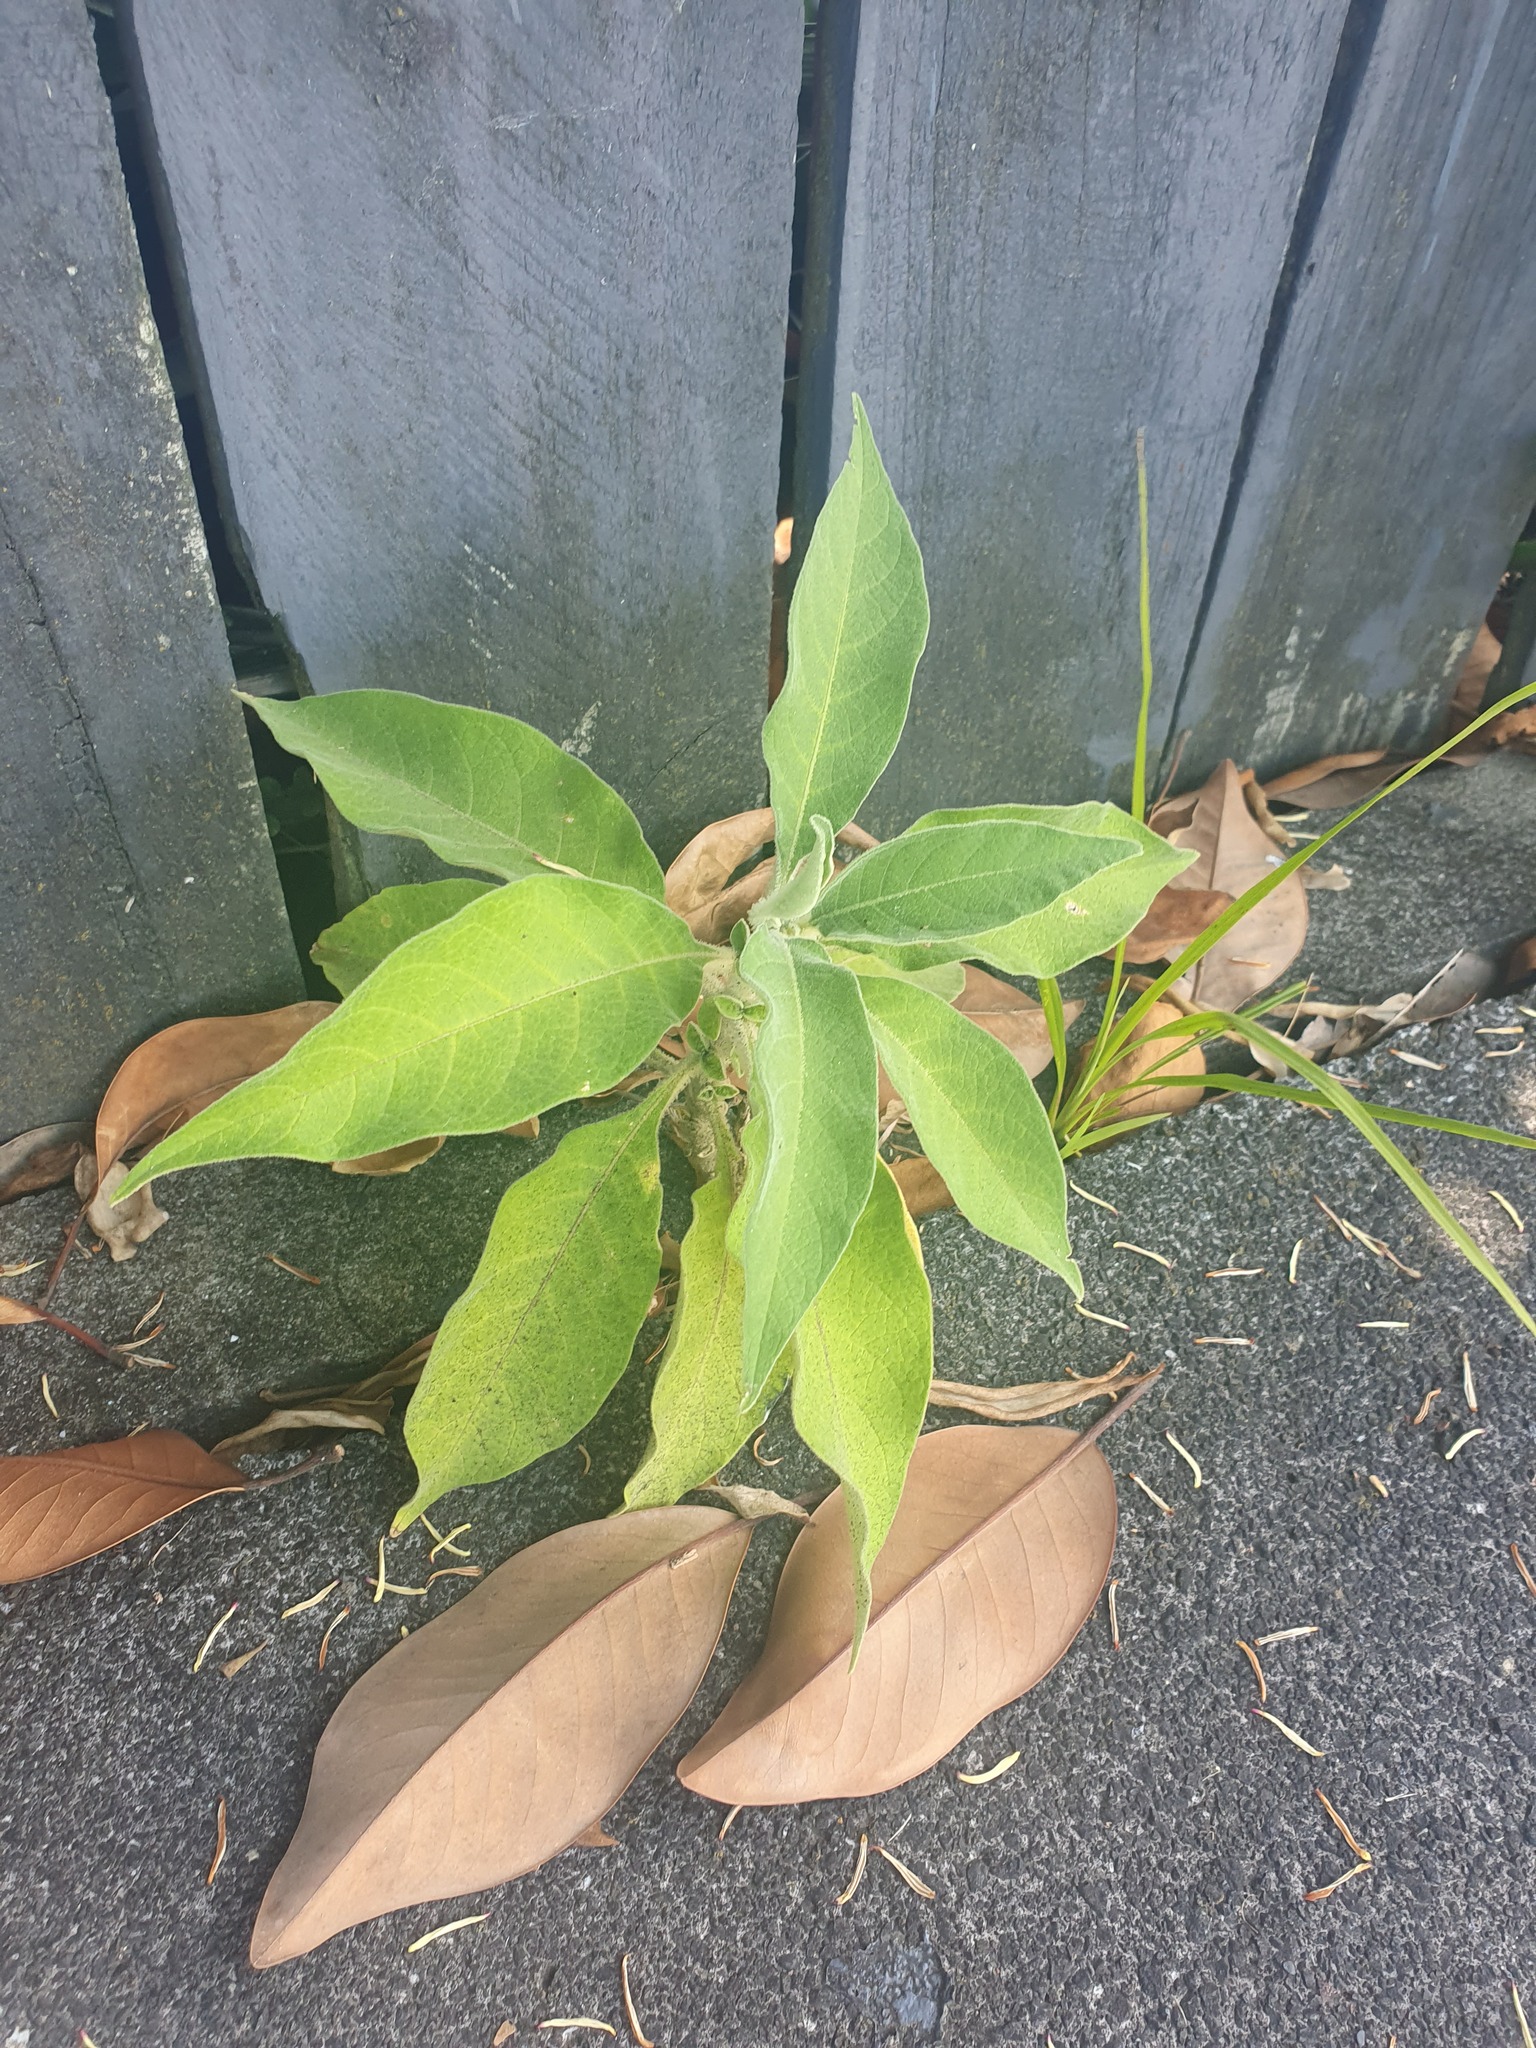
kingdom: Plantae
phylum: Tracheophyta
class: Magnoliopsida
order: Solanales
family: Solanaceae
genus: Solanum
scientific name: Solanum mauritianum
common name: Earleaf nightshade
